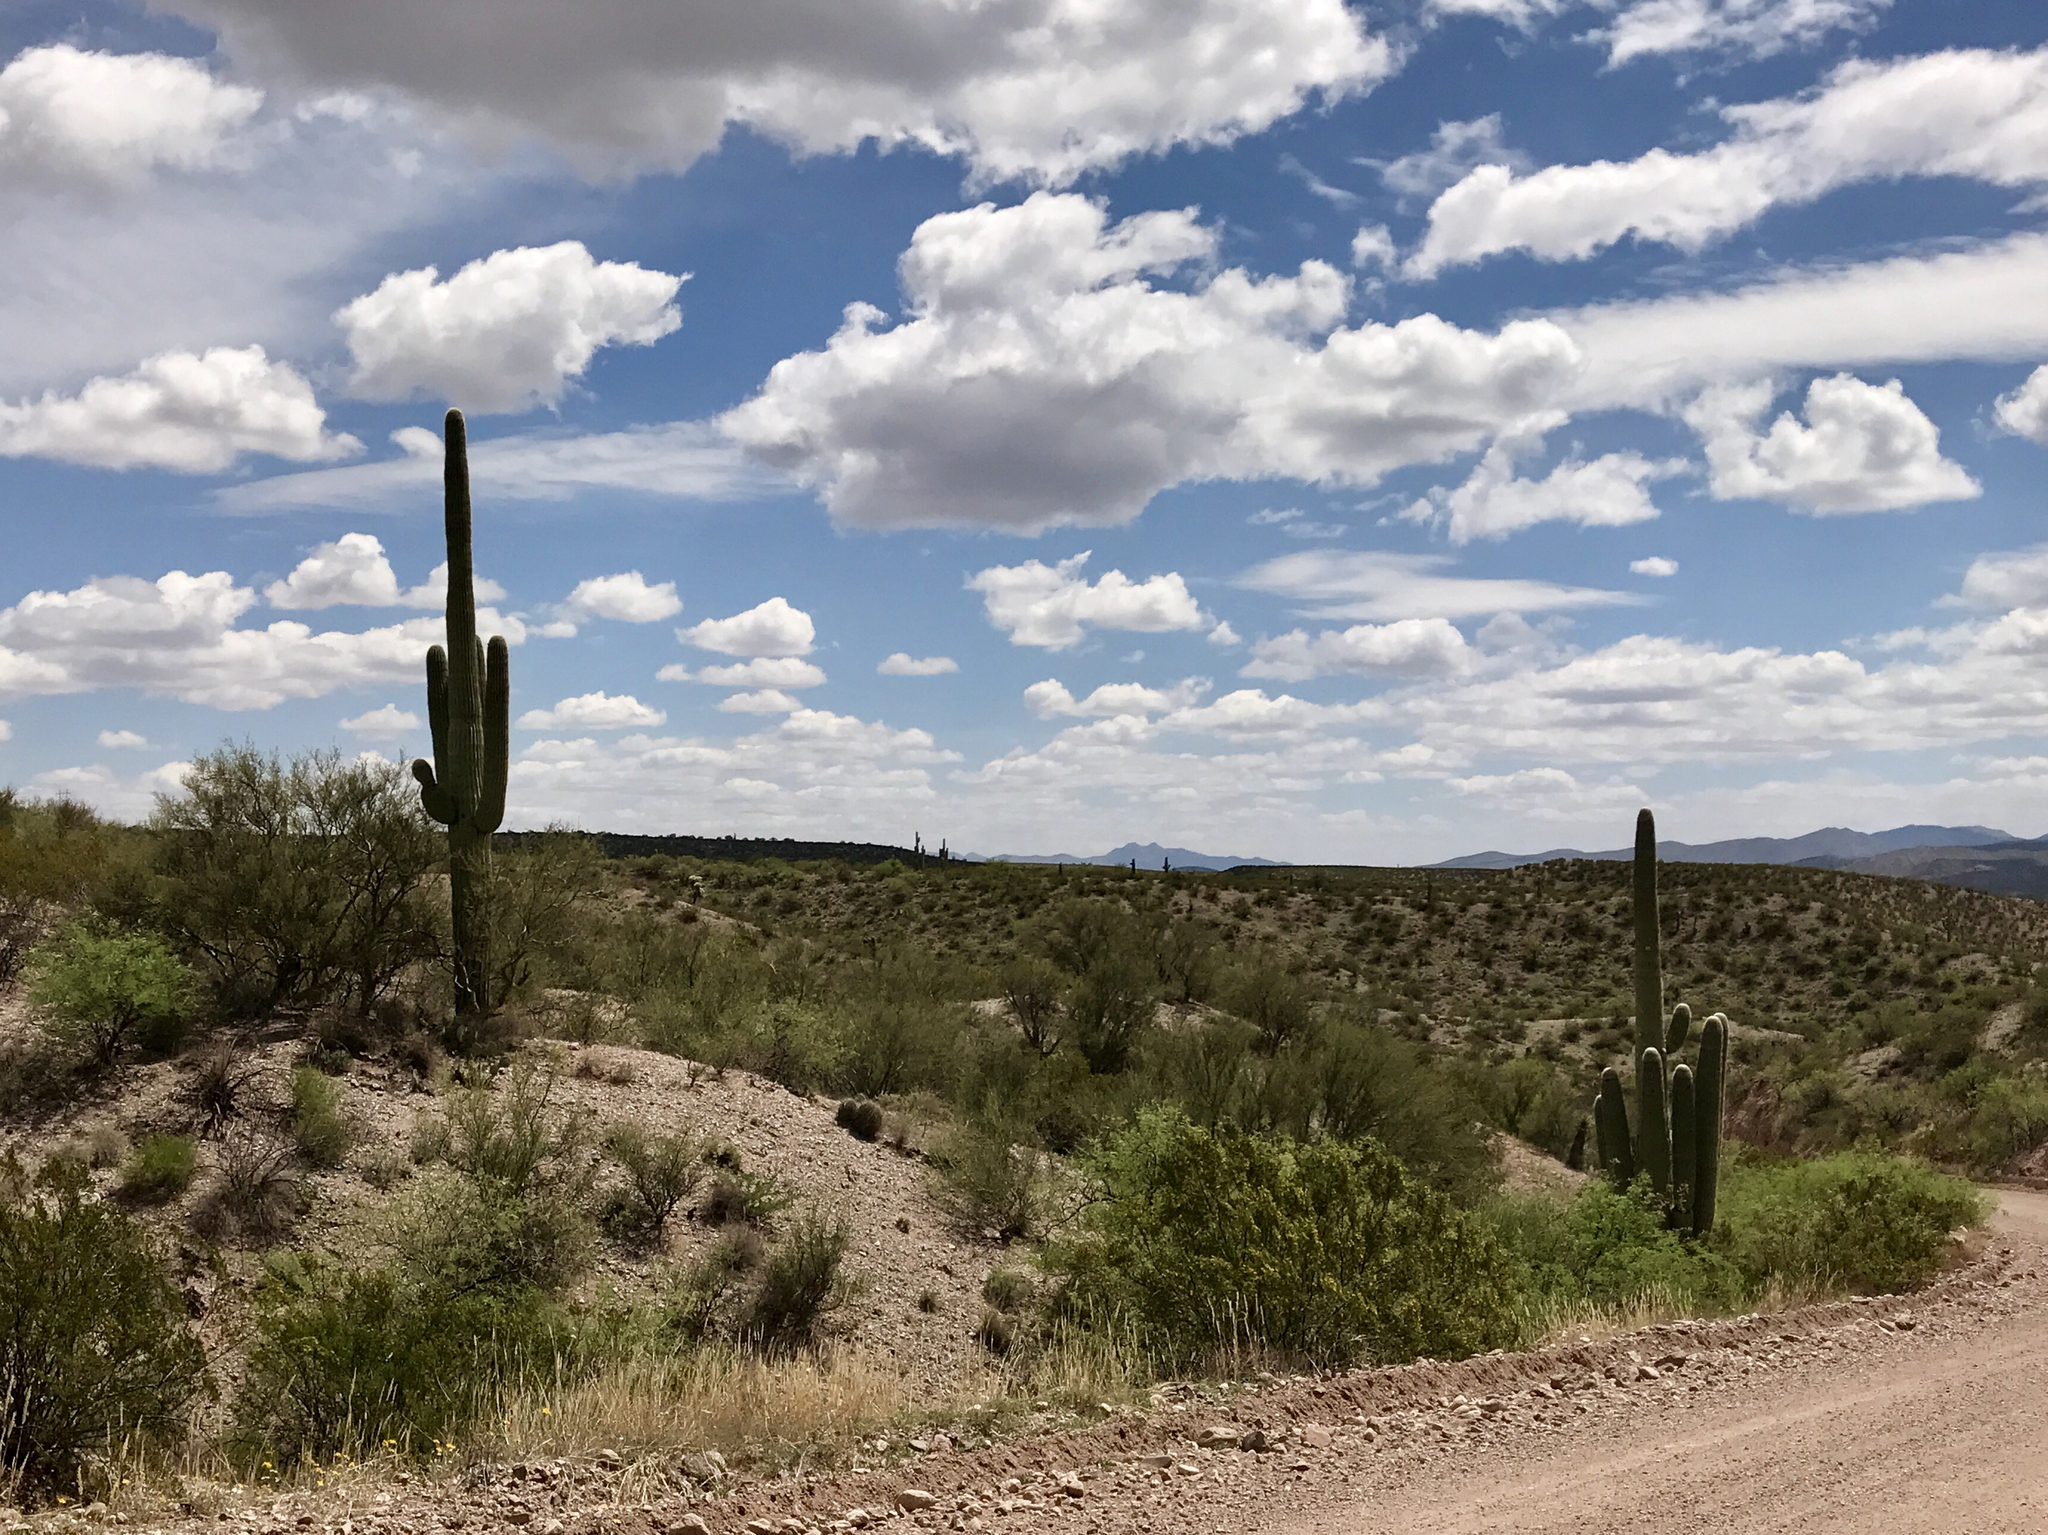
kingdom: Plantae
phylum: Tracheophyta
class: Magnoliopsida
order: Caryophyllales
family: Cactaceae
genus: Carnegiea
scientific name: Carnegiea gigantea
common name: Saguaro
